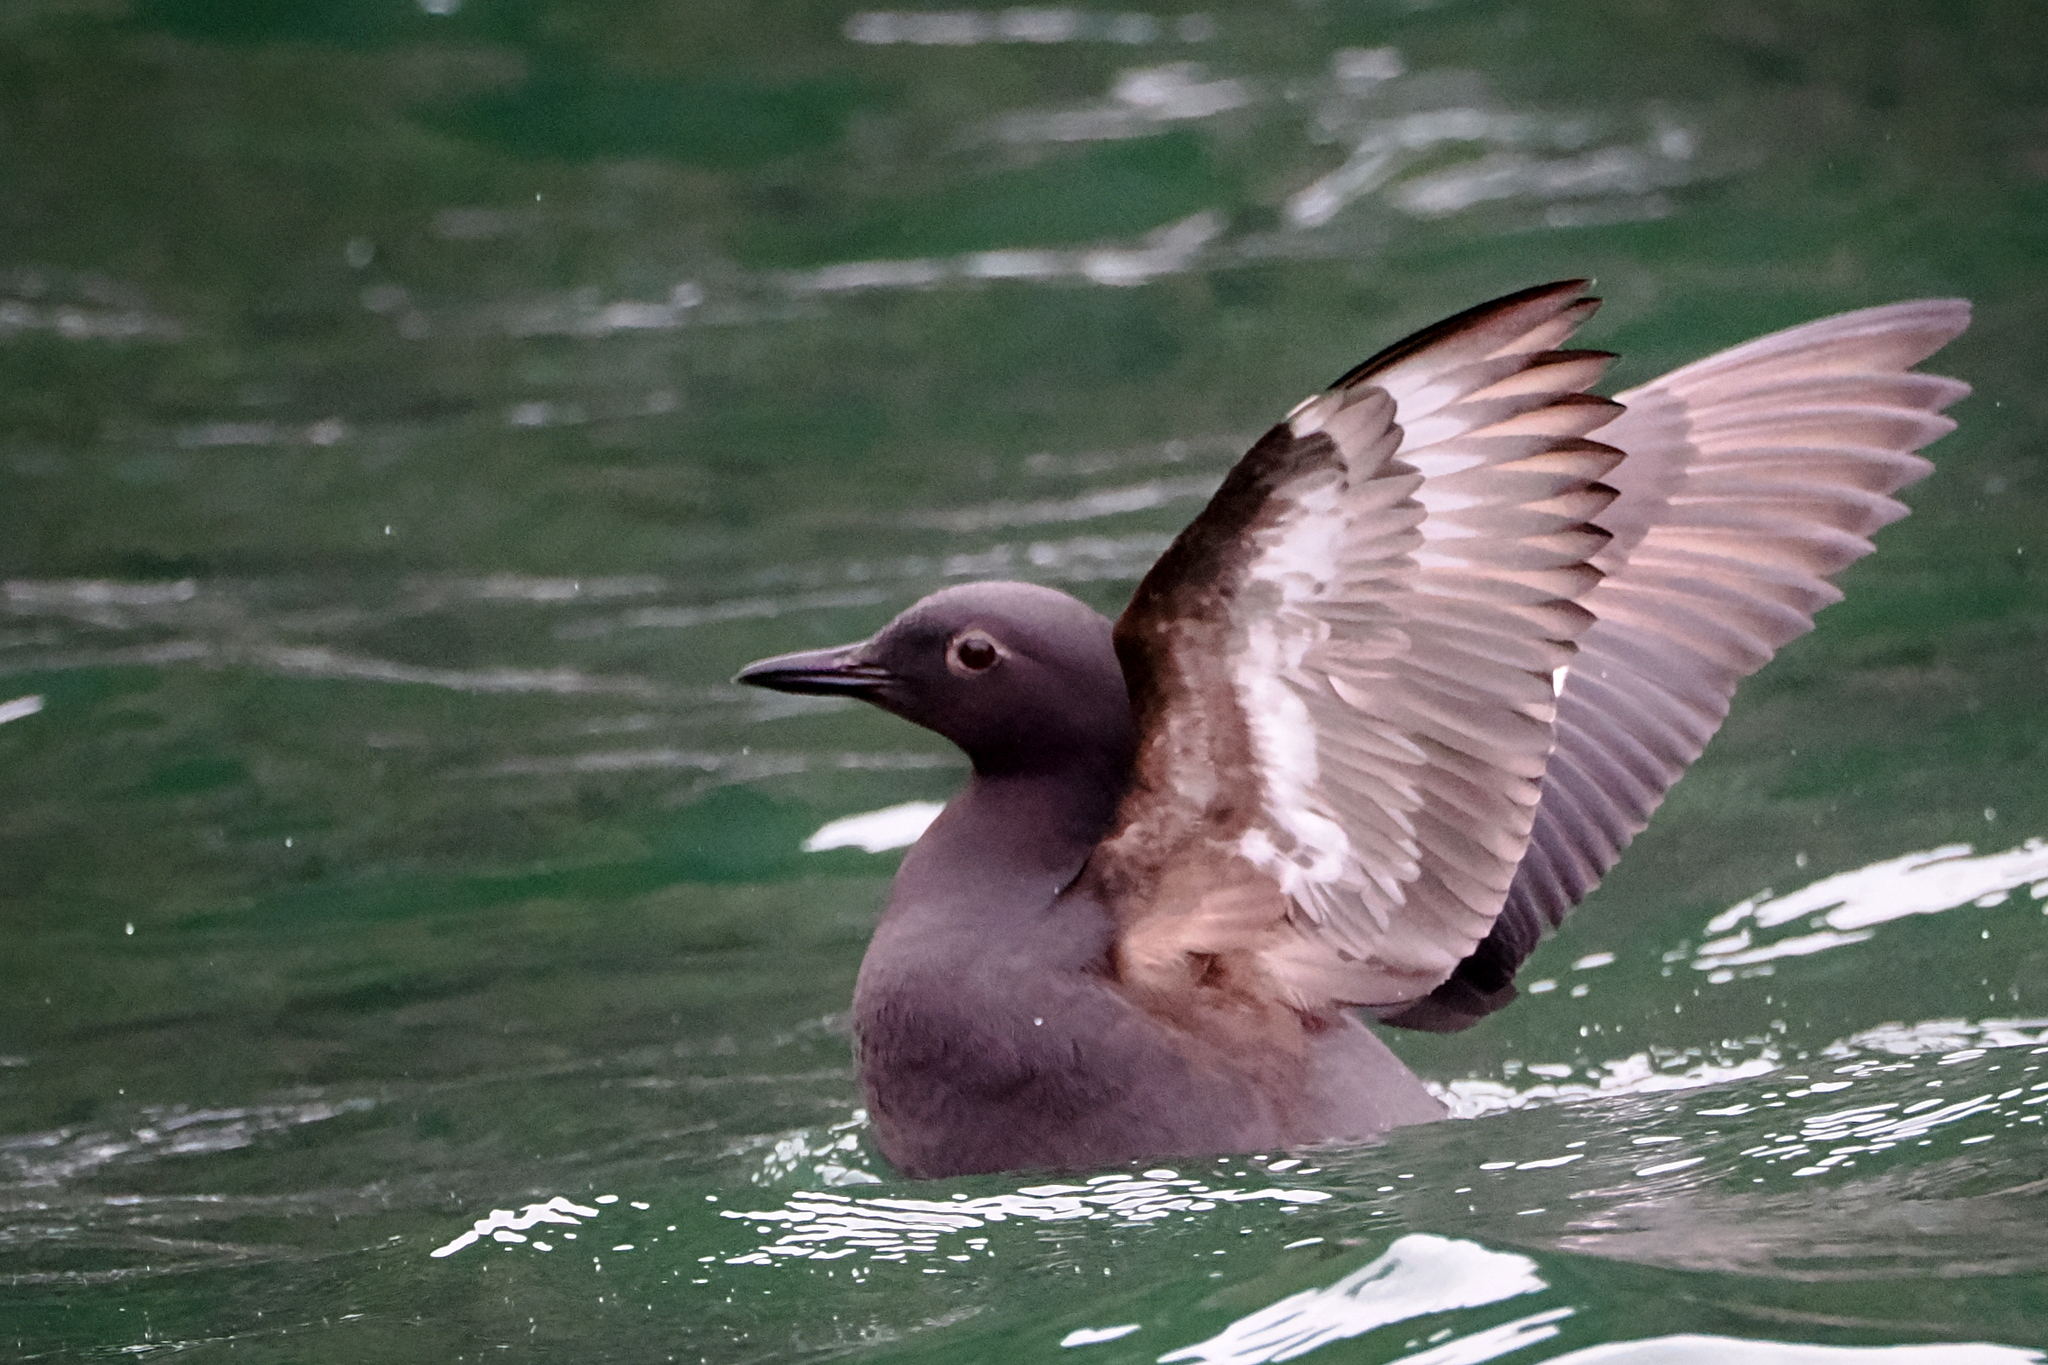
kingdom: Animalia
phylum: Chordata
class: Aves
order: Charadriiformes
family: Alcidae
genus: Cepphus
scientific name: Cepphus columba
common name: Pigeon guillemot
